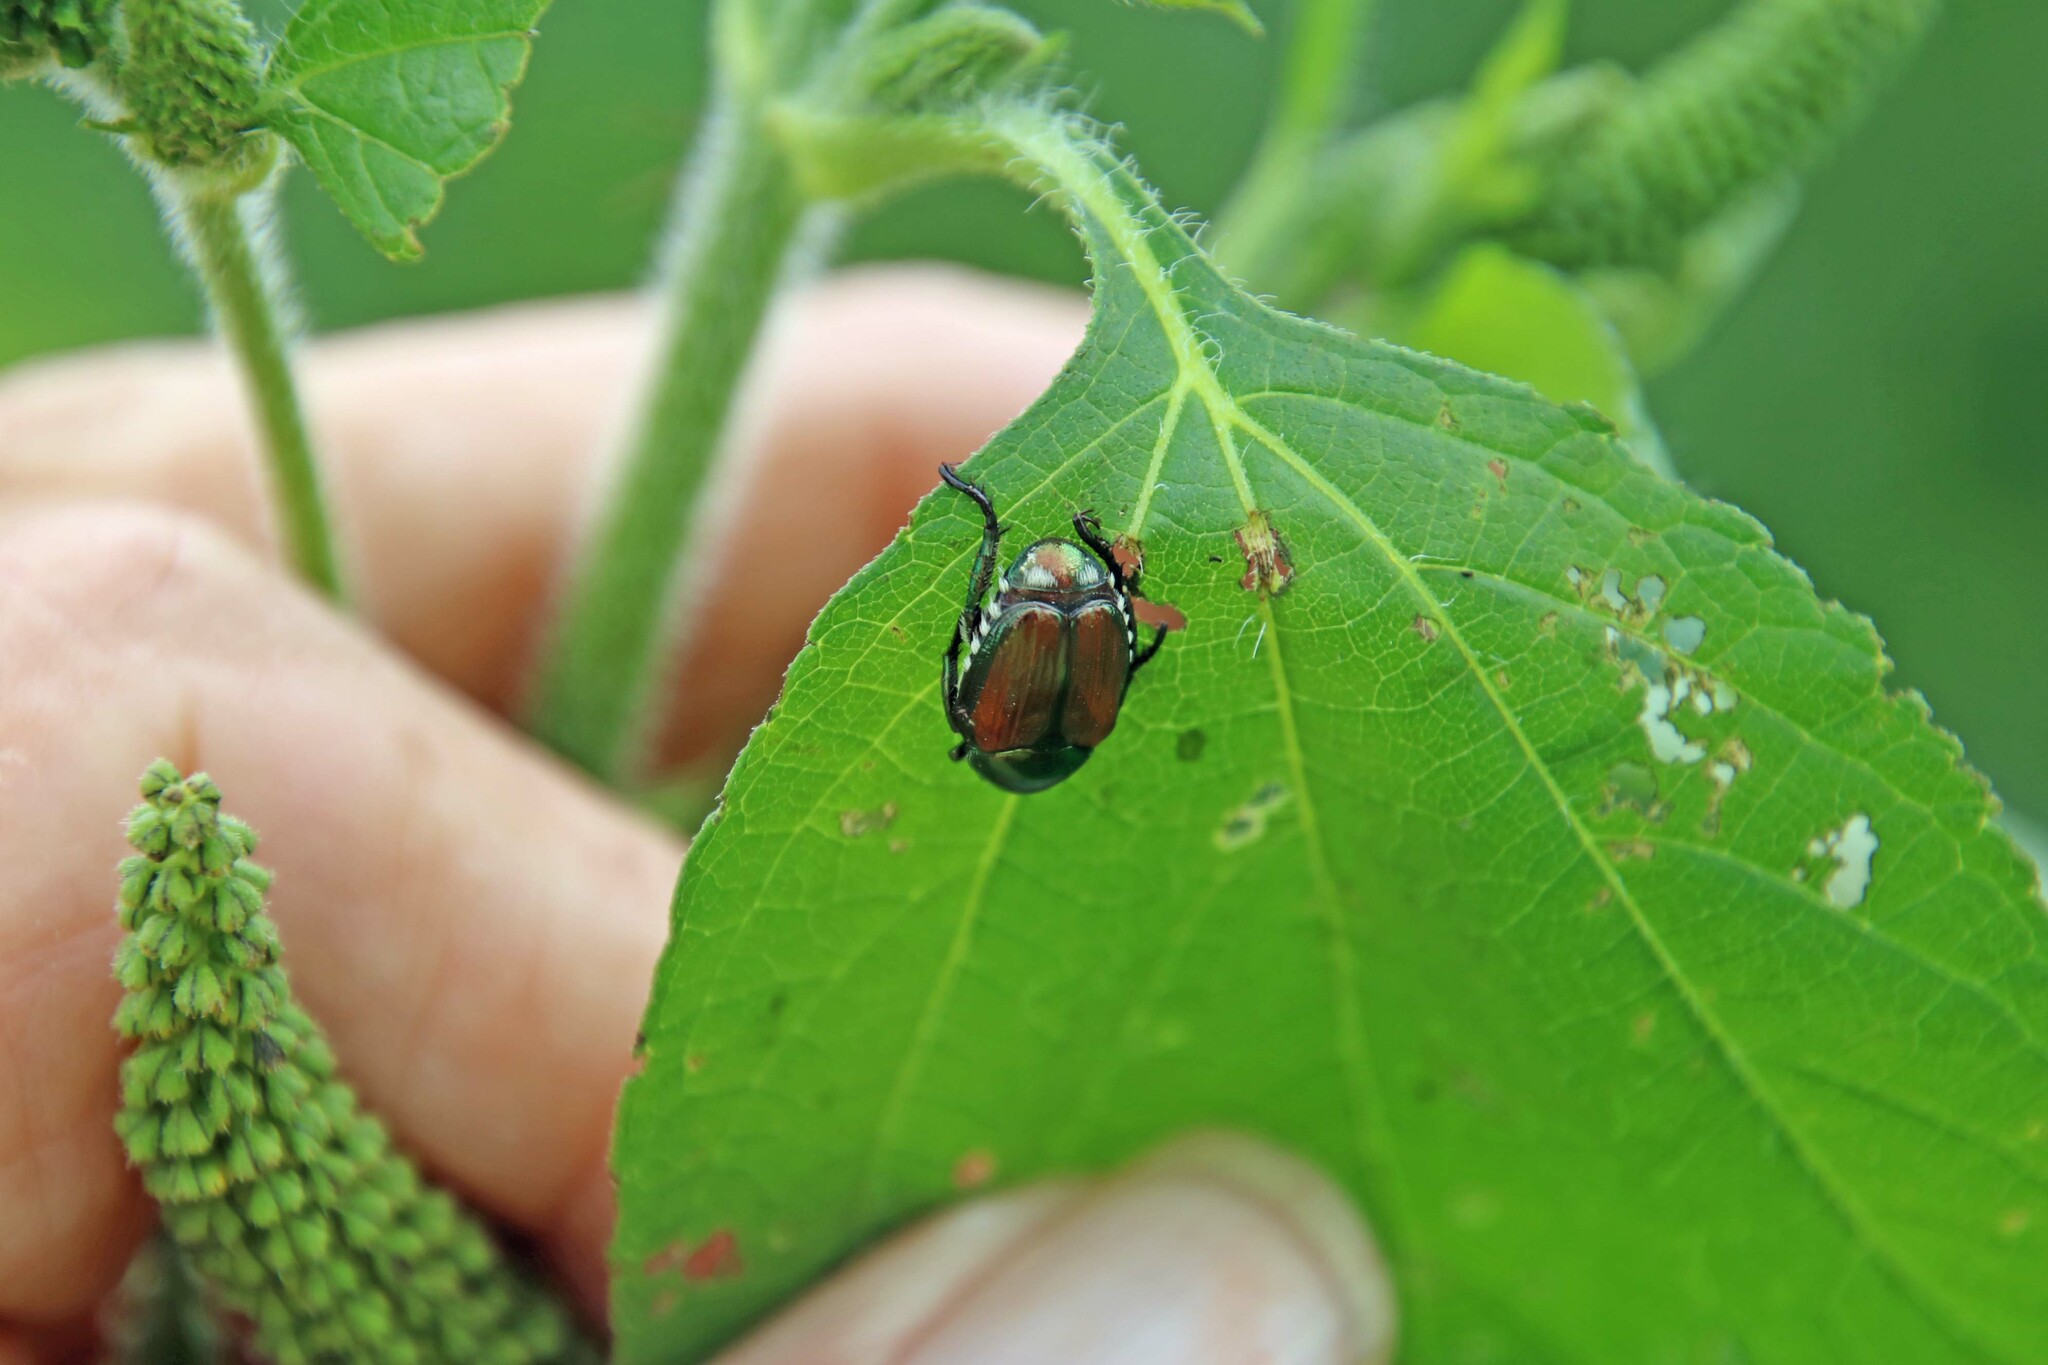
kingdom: Animalia
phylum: Arthropoda
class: Insecta
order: Coleoptera
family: Scarabaeidae
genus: Popillia
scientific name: Popillia japonica
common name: Japanese beetle
